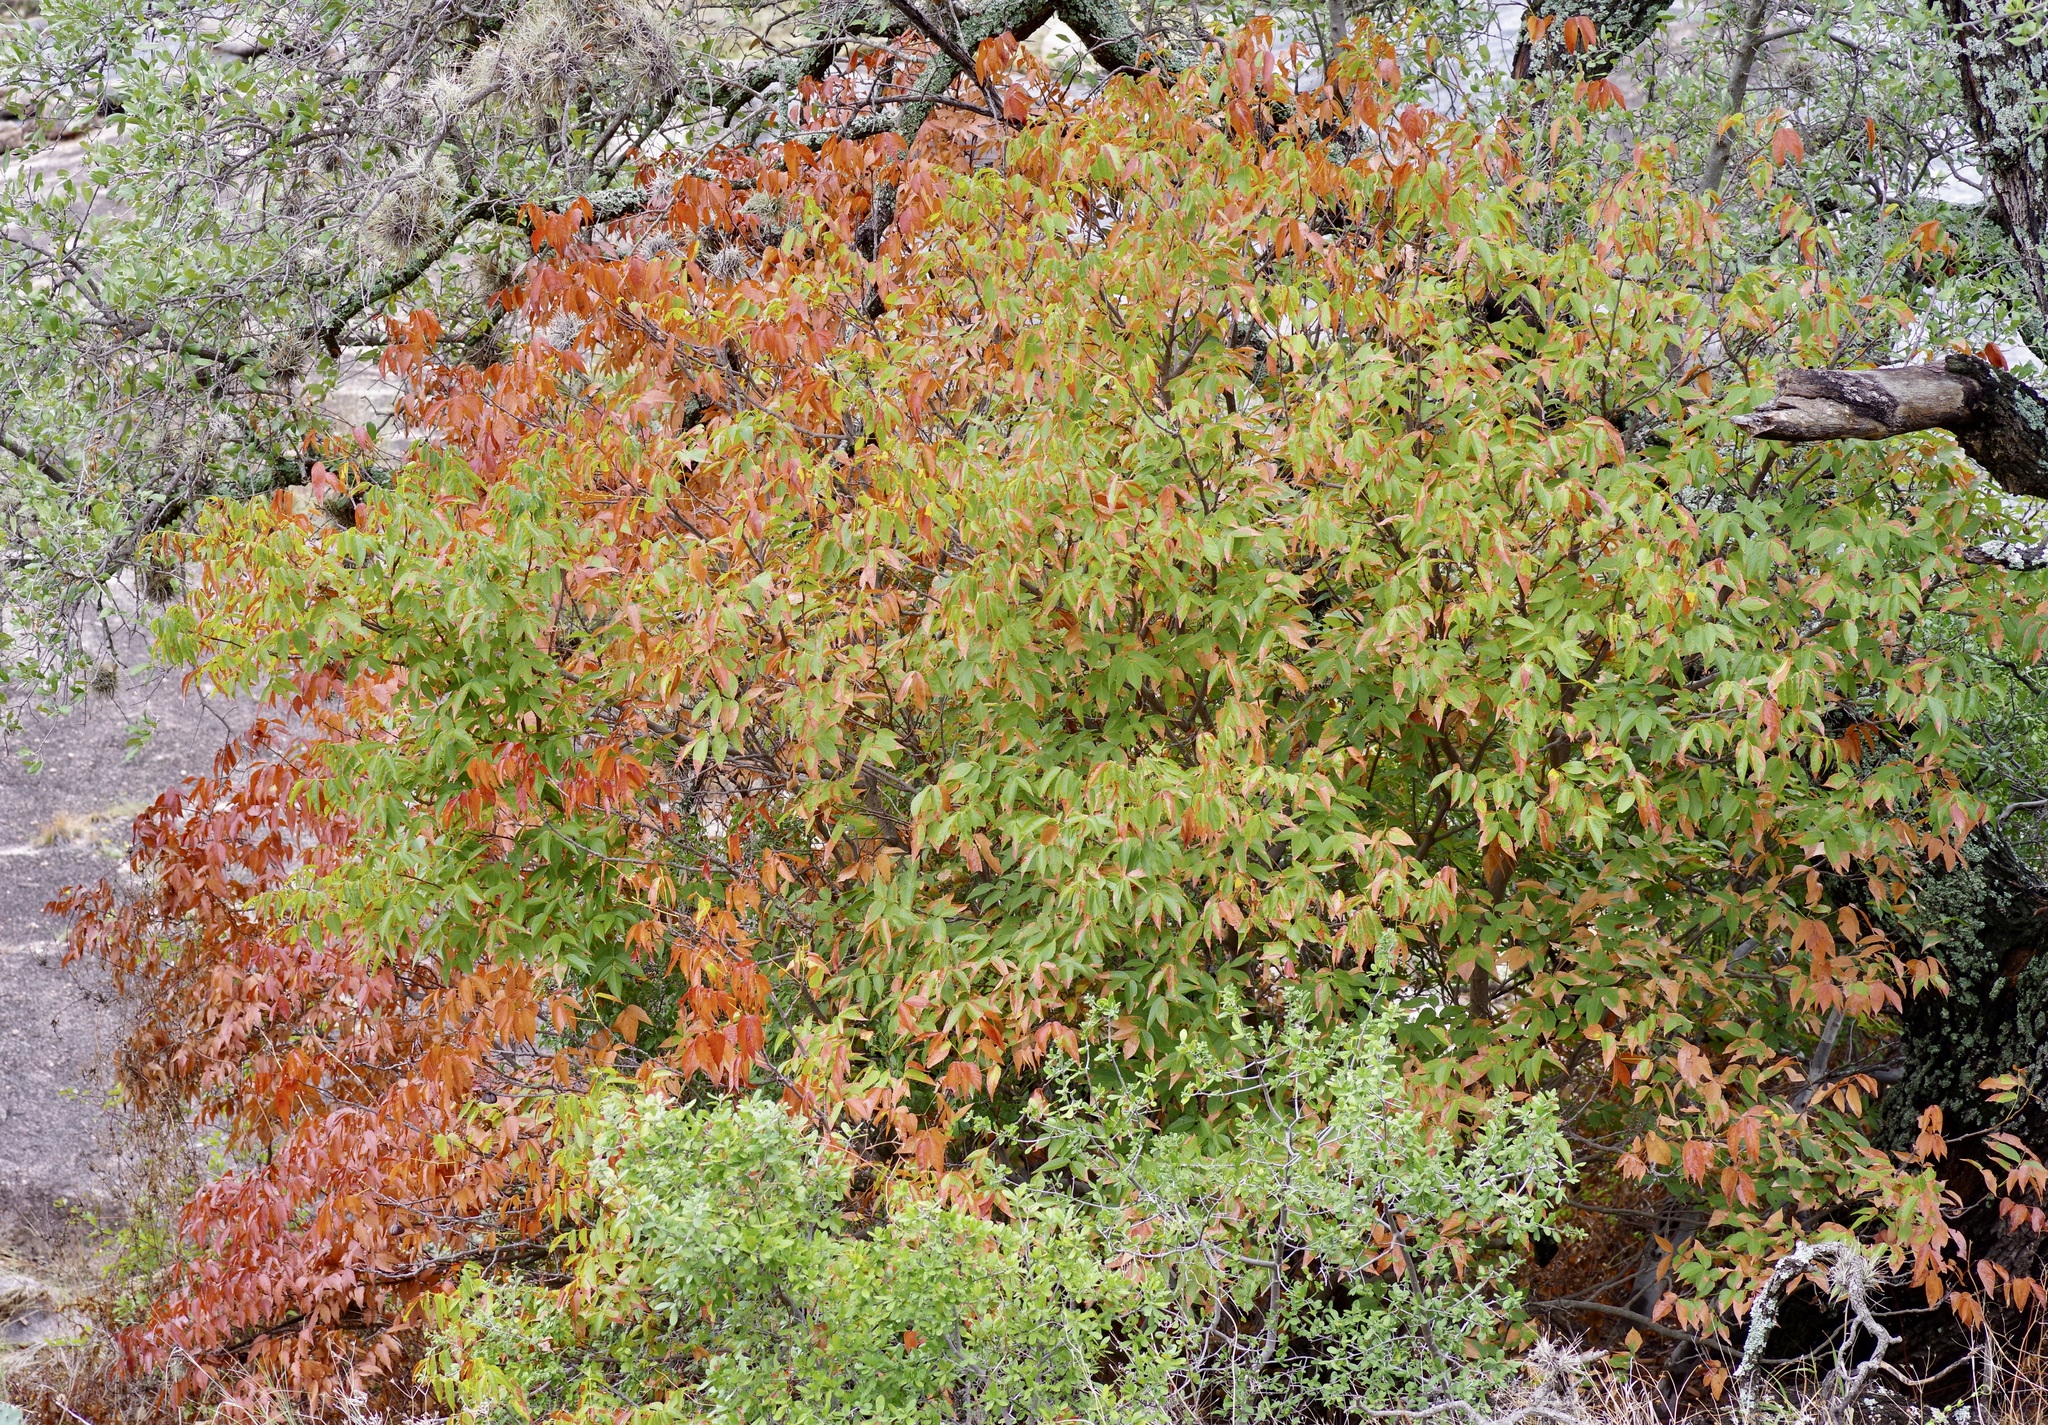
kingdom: Plantae
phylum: Tracheophyta
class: Magnoliopsida
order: Sapindales
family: Sapindaceae
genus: Ungnadia
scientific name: Ungnadia speciosa
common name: Texas-buckeye
